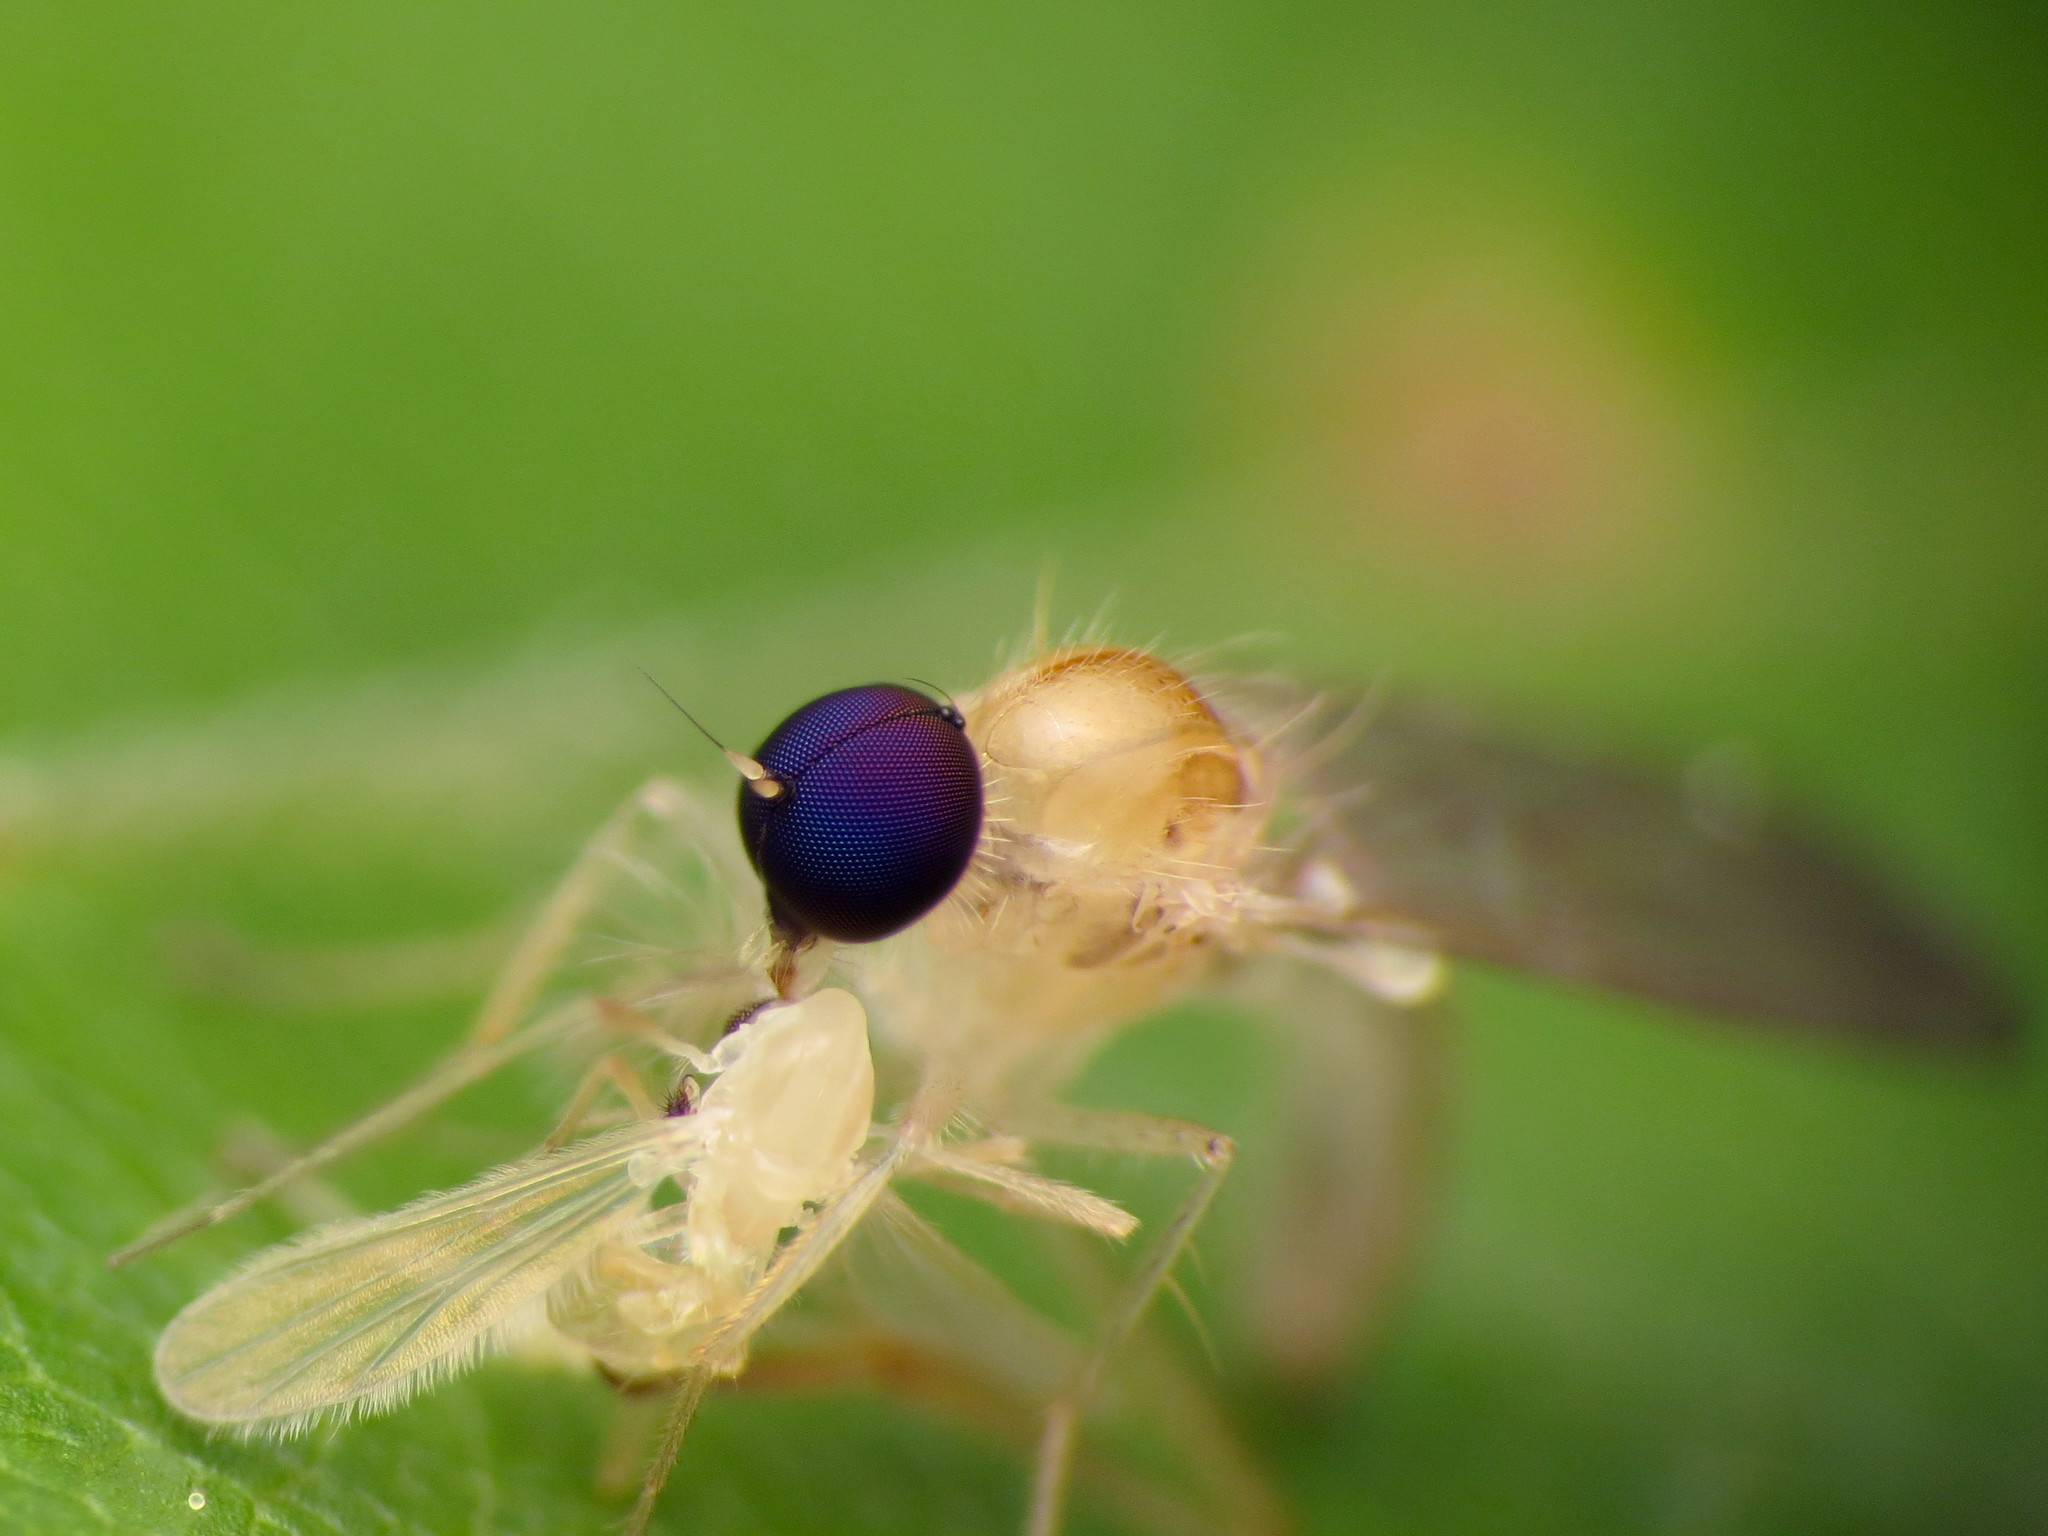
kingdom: Animalia
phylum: Arthropoda
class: Insecta
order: Diptera
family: Hybotidae
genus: Leptopeza
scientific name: Leptopeza compta
